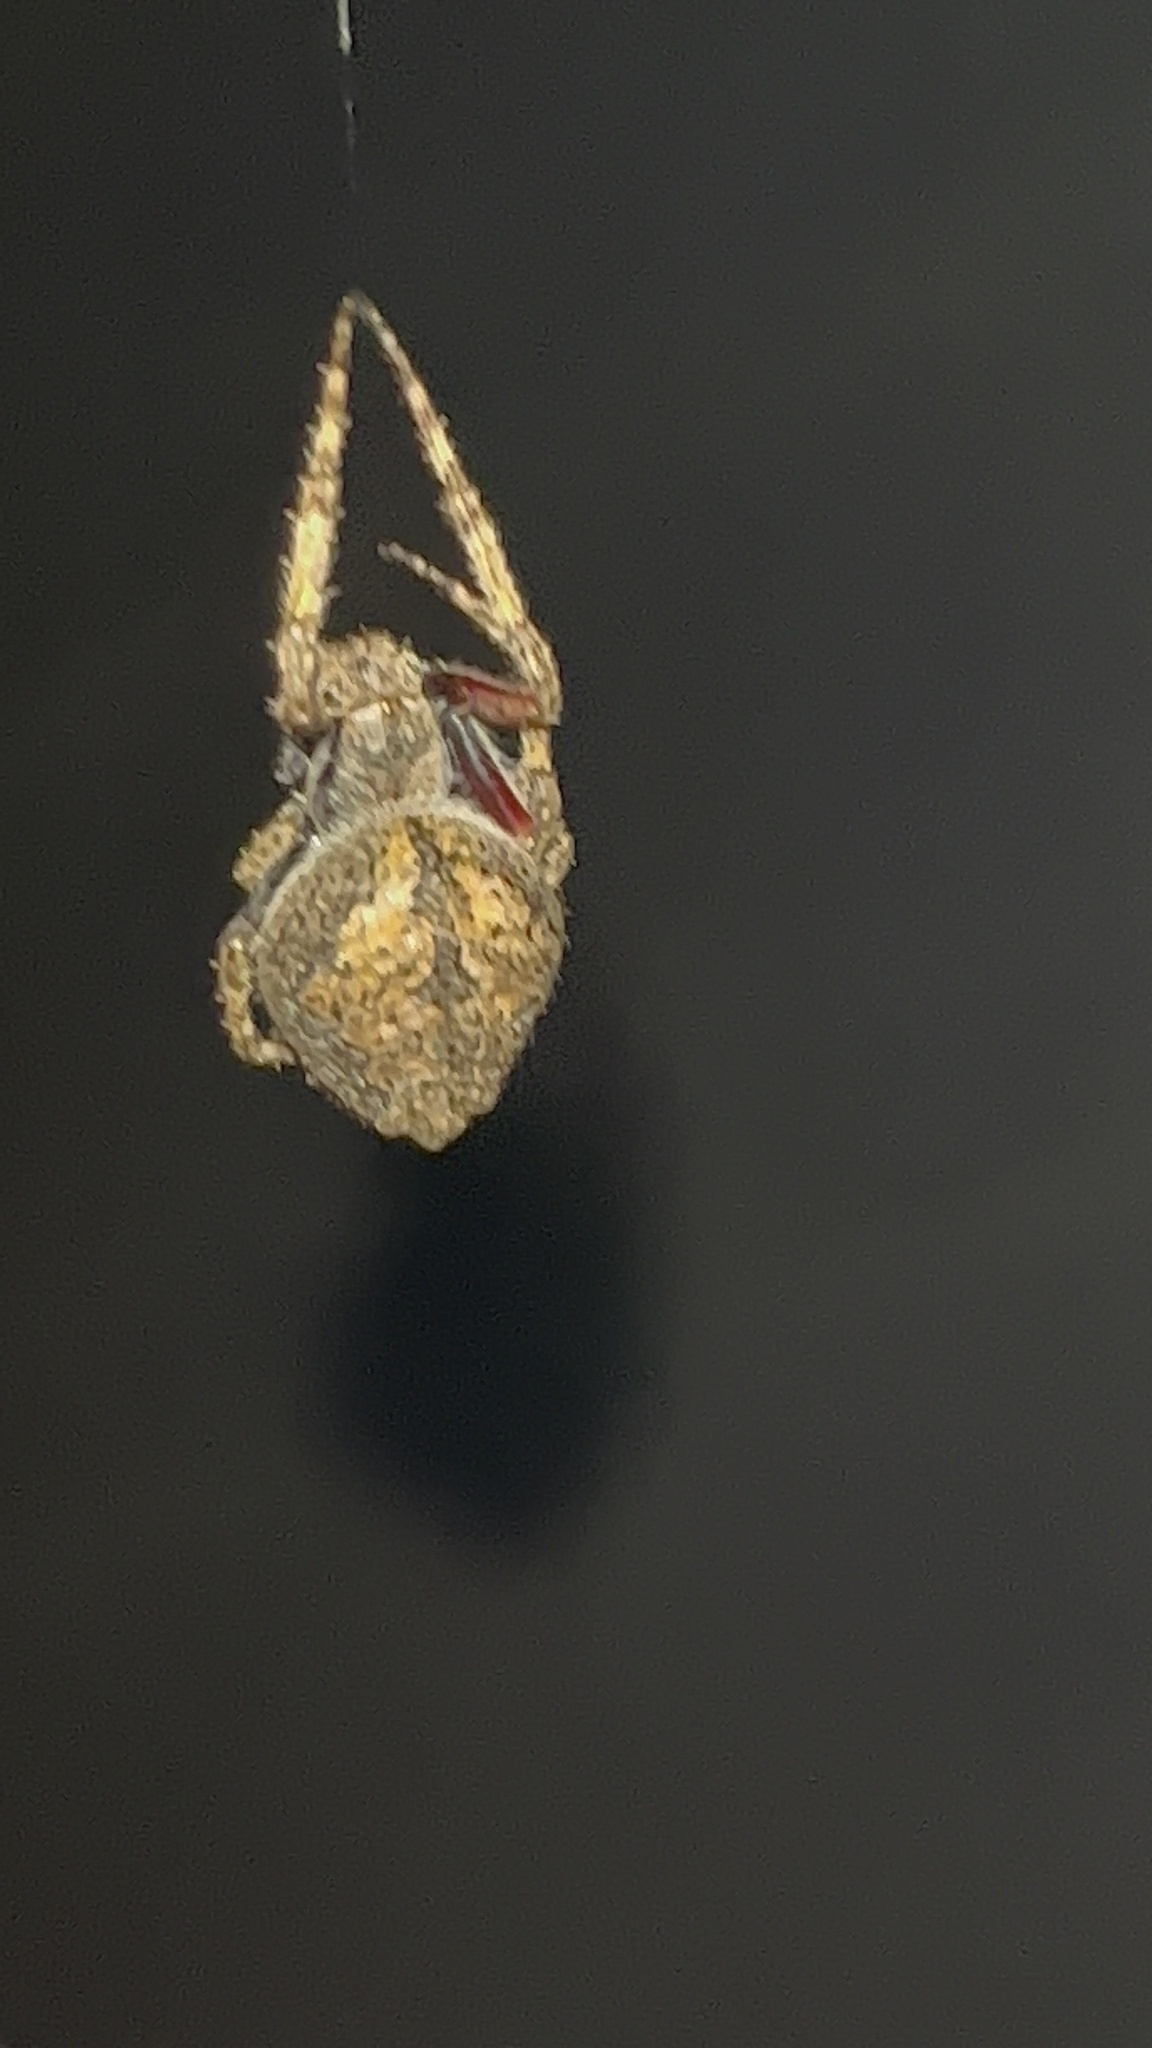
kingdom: Animalia
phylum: Arthropoda
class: Arachnida
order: Araneae
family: Araneidae
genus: Eriophora
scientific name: Eriophora pustulosa
